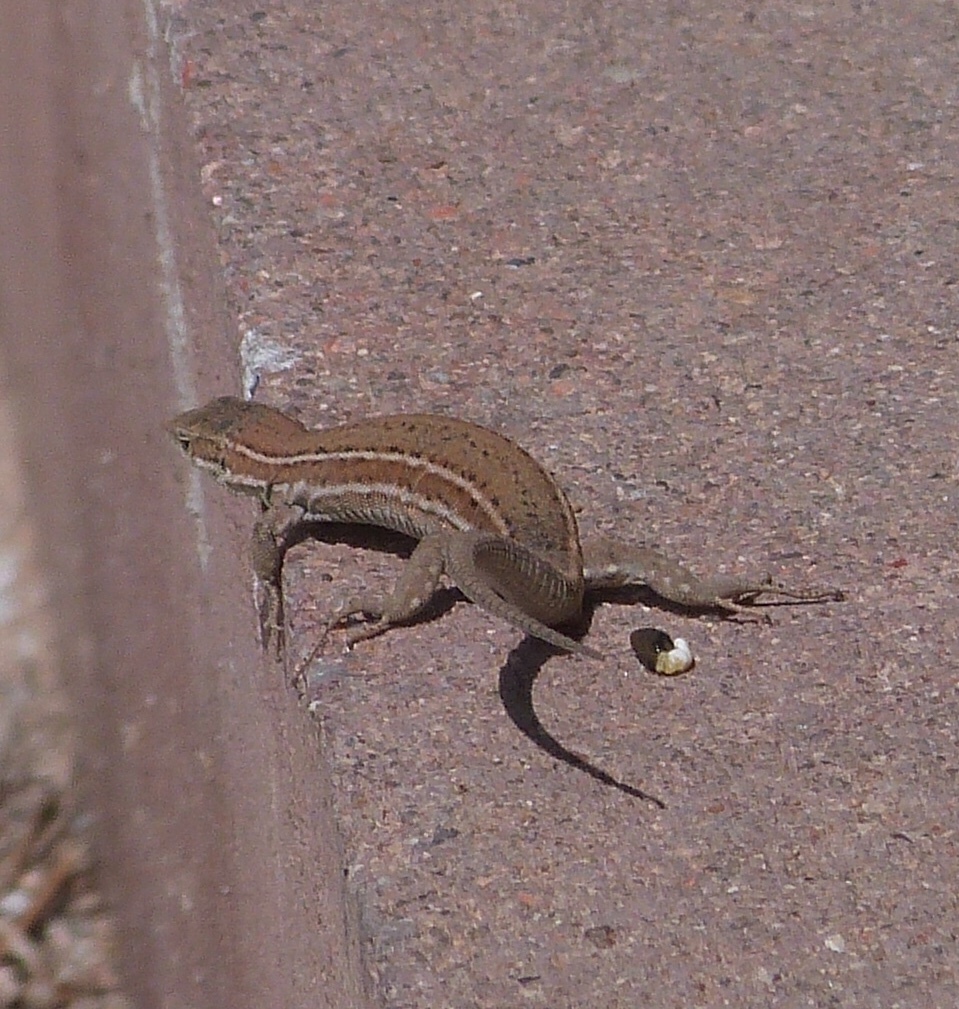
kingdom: Animalia
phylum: Chordata
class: Squamata
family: Lacertidae
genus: Podarcis
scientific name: Podarcis liolepis
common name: Catalonian wall lizard
